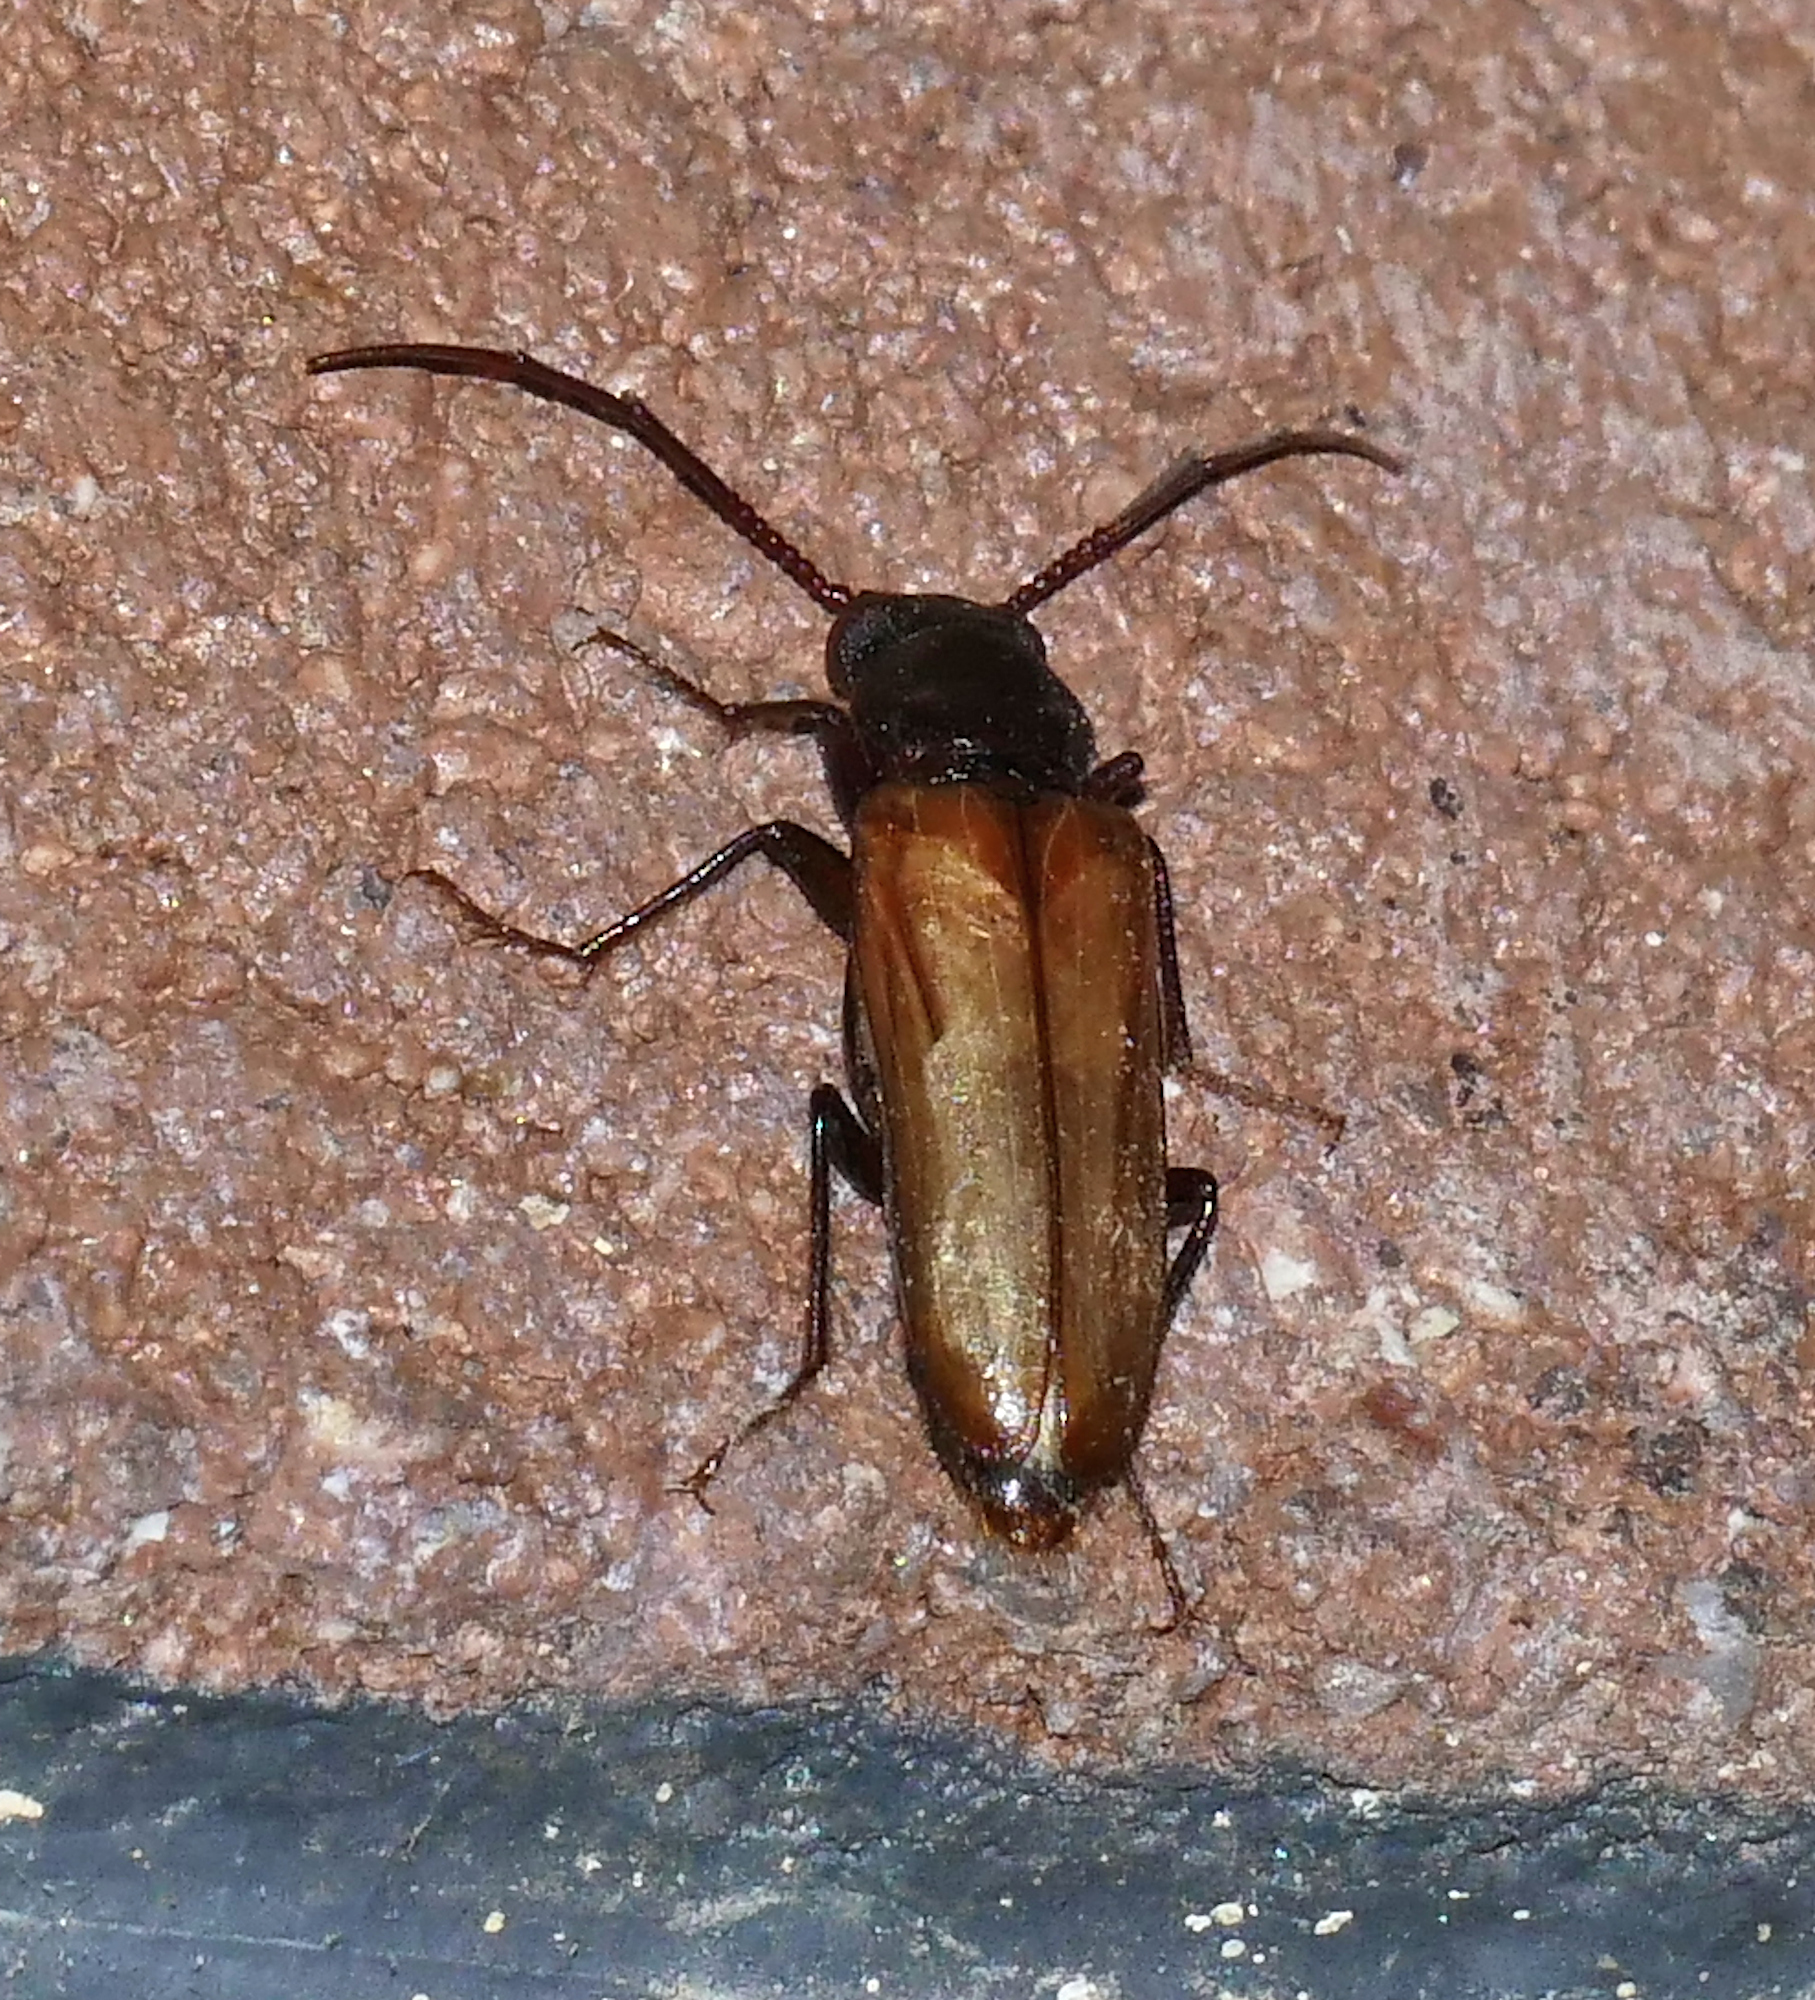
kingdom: Animalia
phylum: Arthropoda
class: Insecta
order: Coleoptera
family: Pythidae
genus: Trimitomerus
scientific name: Trimitomerus riversii
